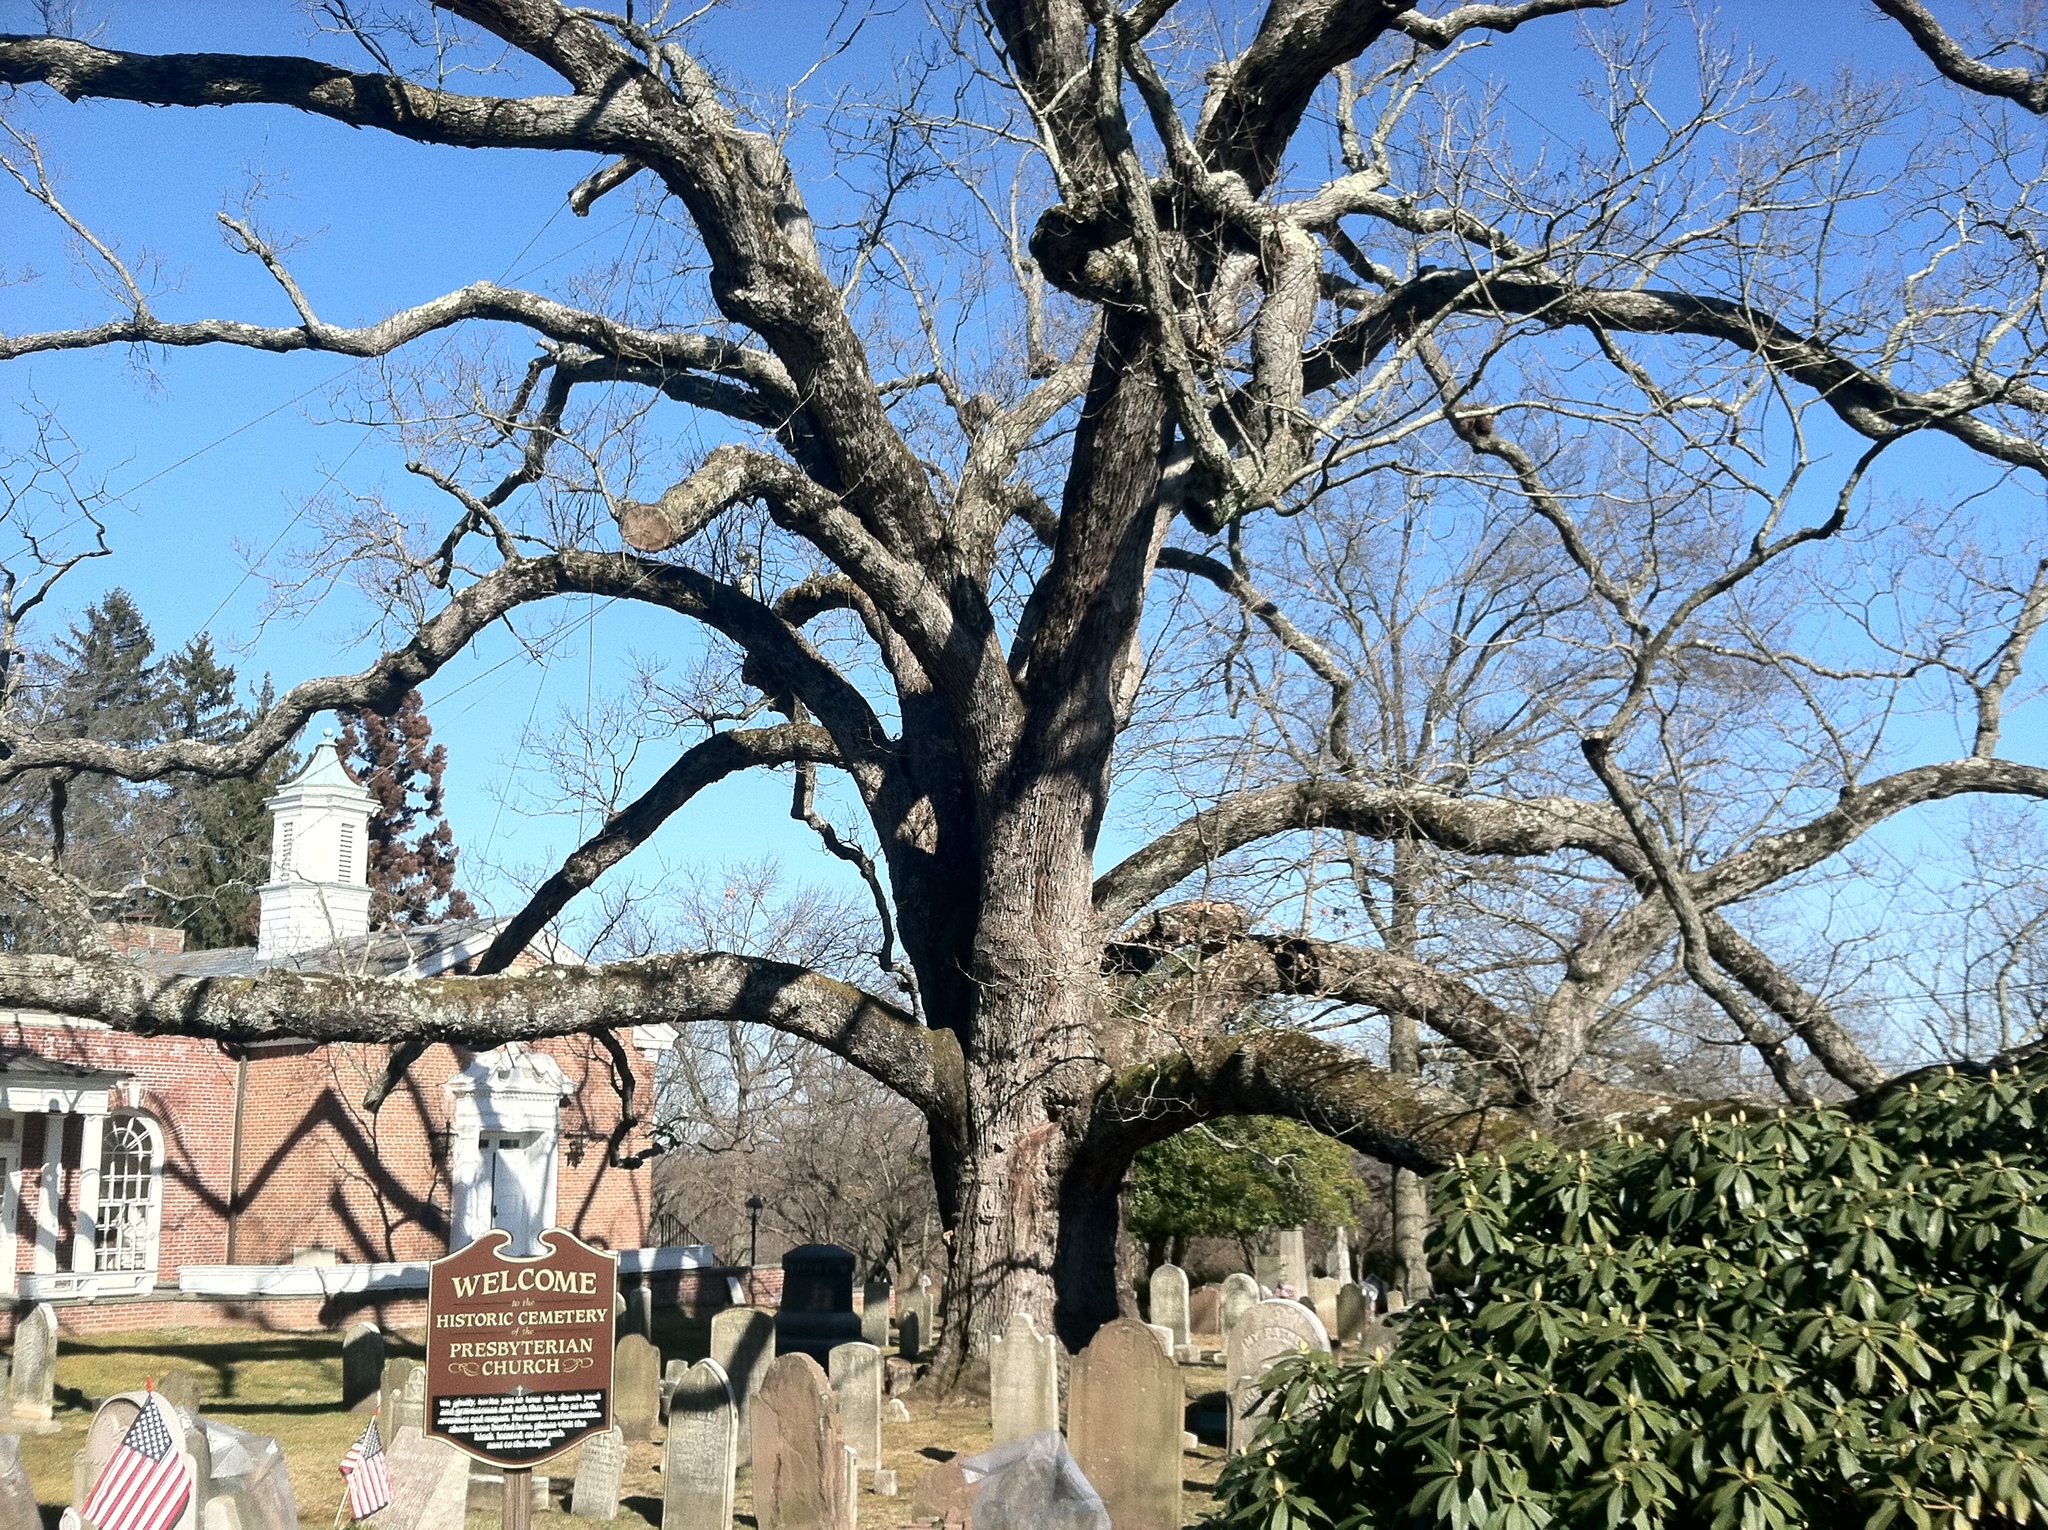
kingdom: Plantae
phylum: Tracheophyta
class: Magnoliopsida
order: Fagales
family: Fagaceae
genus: Quercus
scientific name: Quercus alba
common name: White oak
